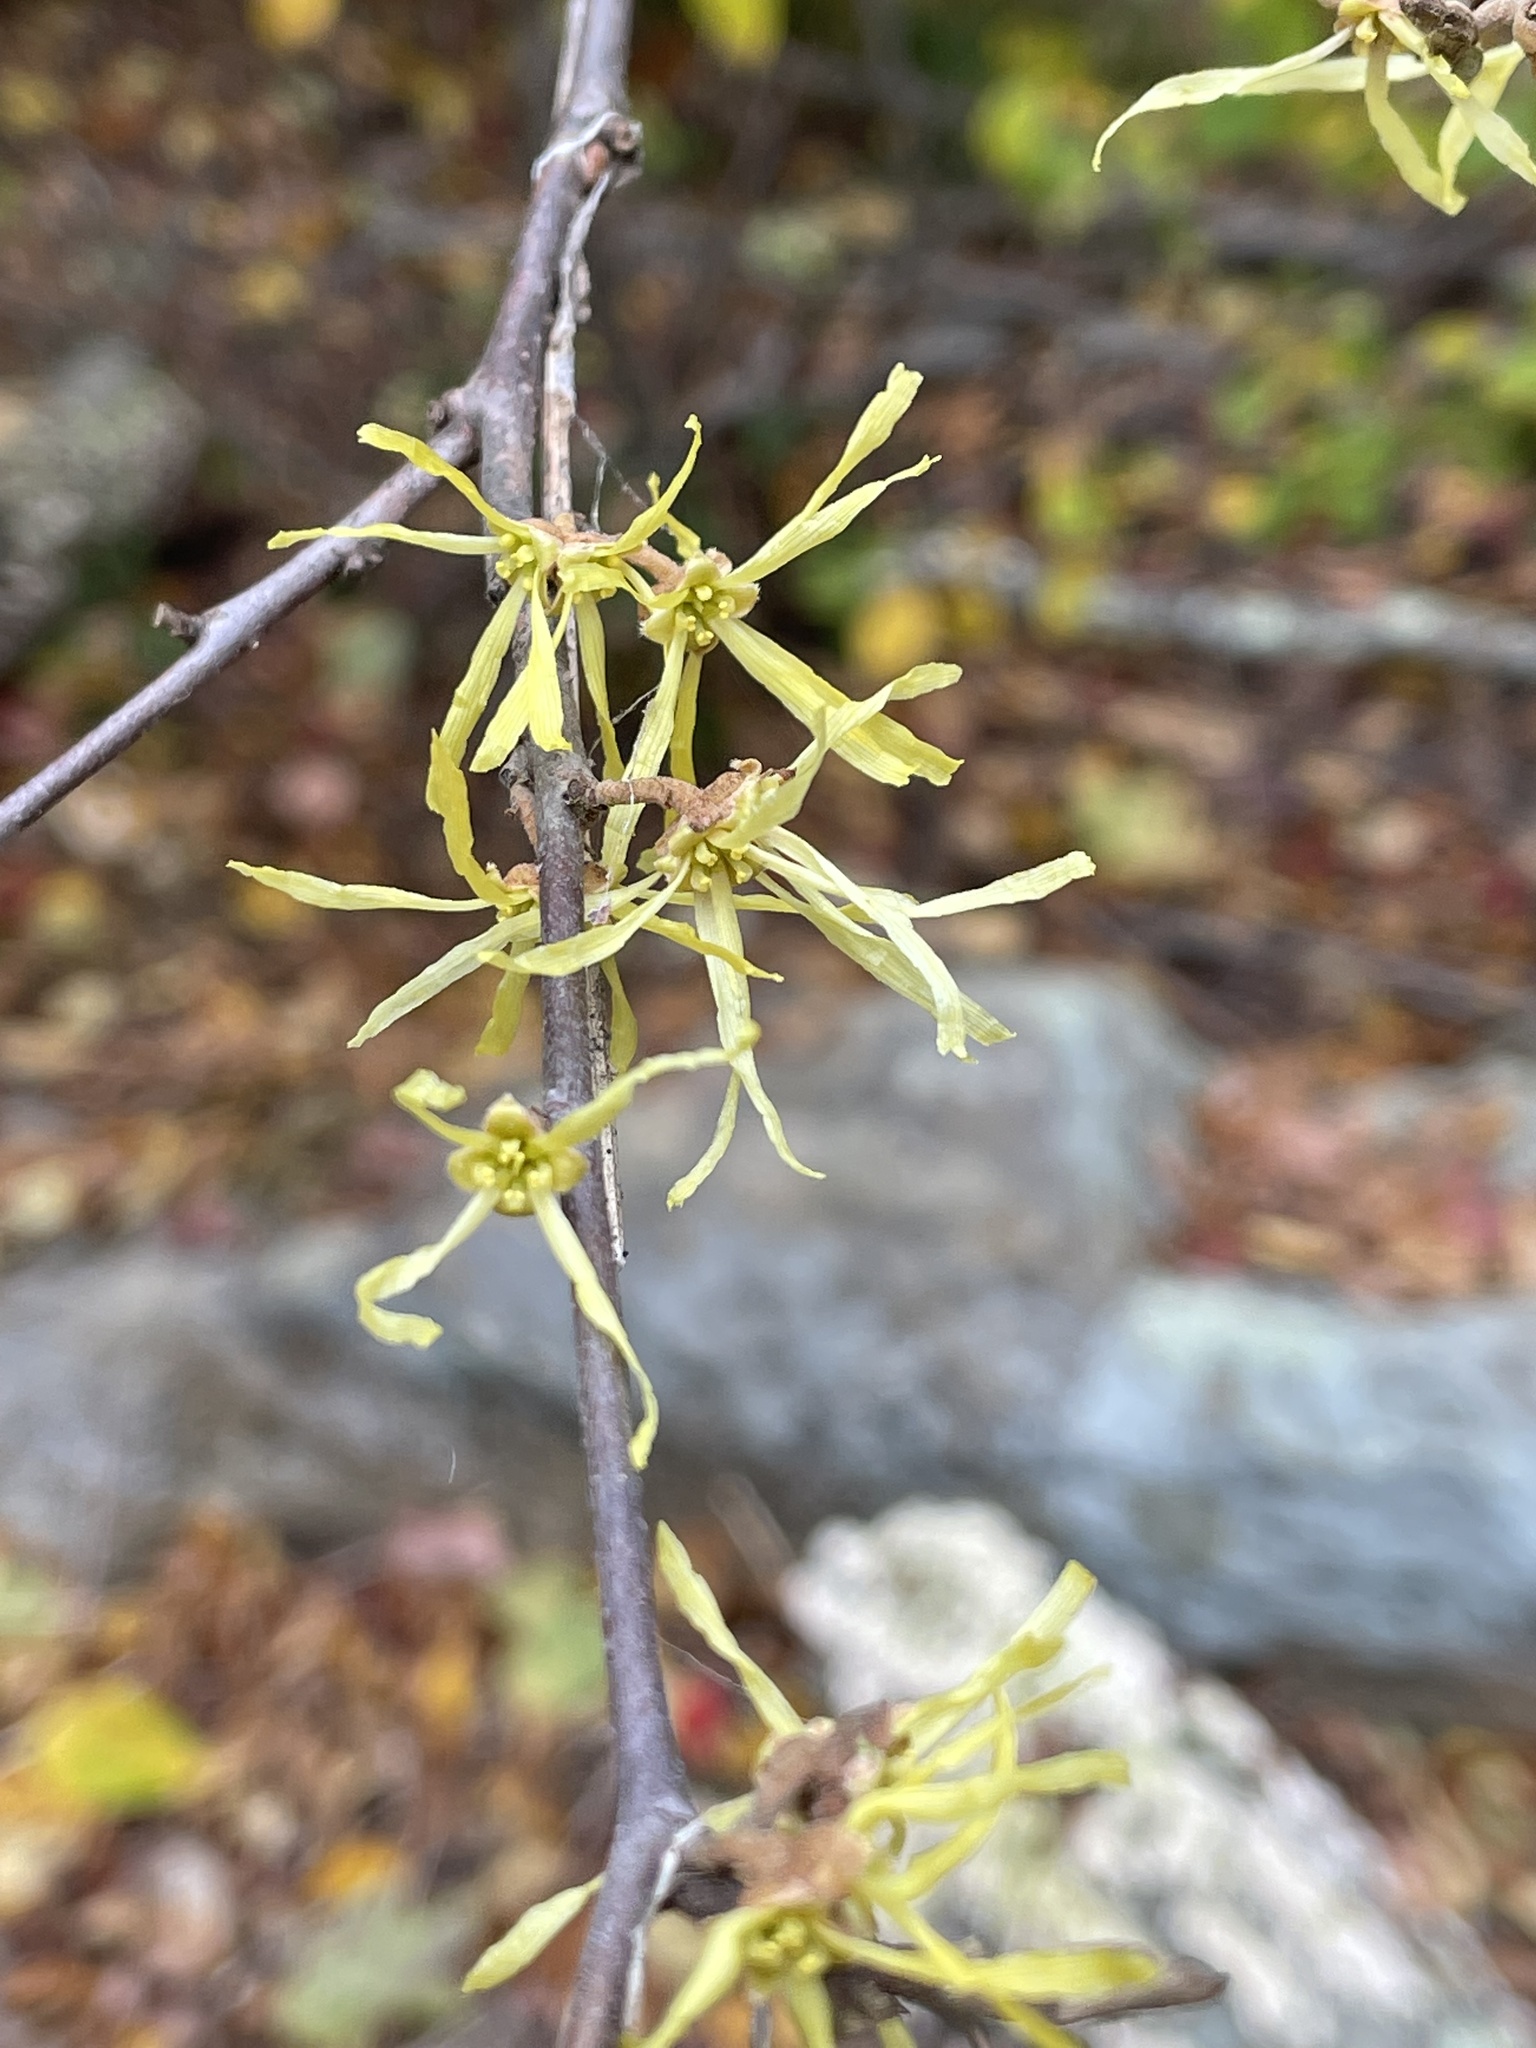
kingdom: Plantae
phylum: Tracheophyta
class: Magnoliopsida
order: Saxifragales
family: Hamamelidaceae
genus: Hamamelis
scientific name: Hamamelis virginiana
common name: Witch-hazel
